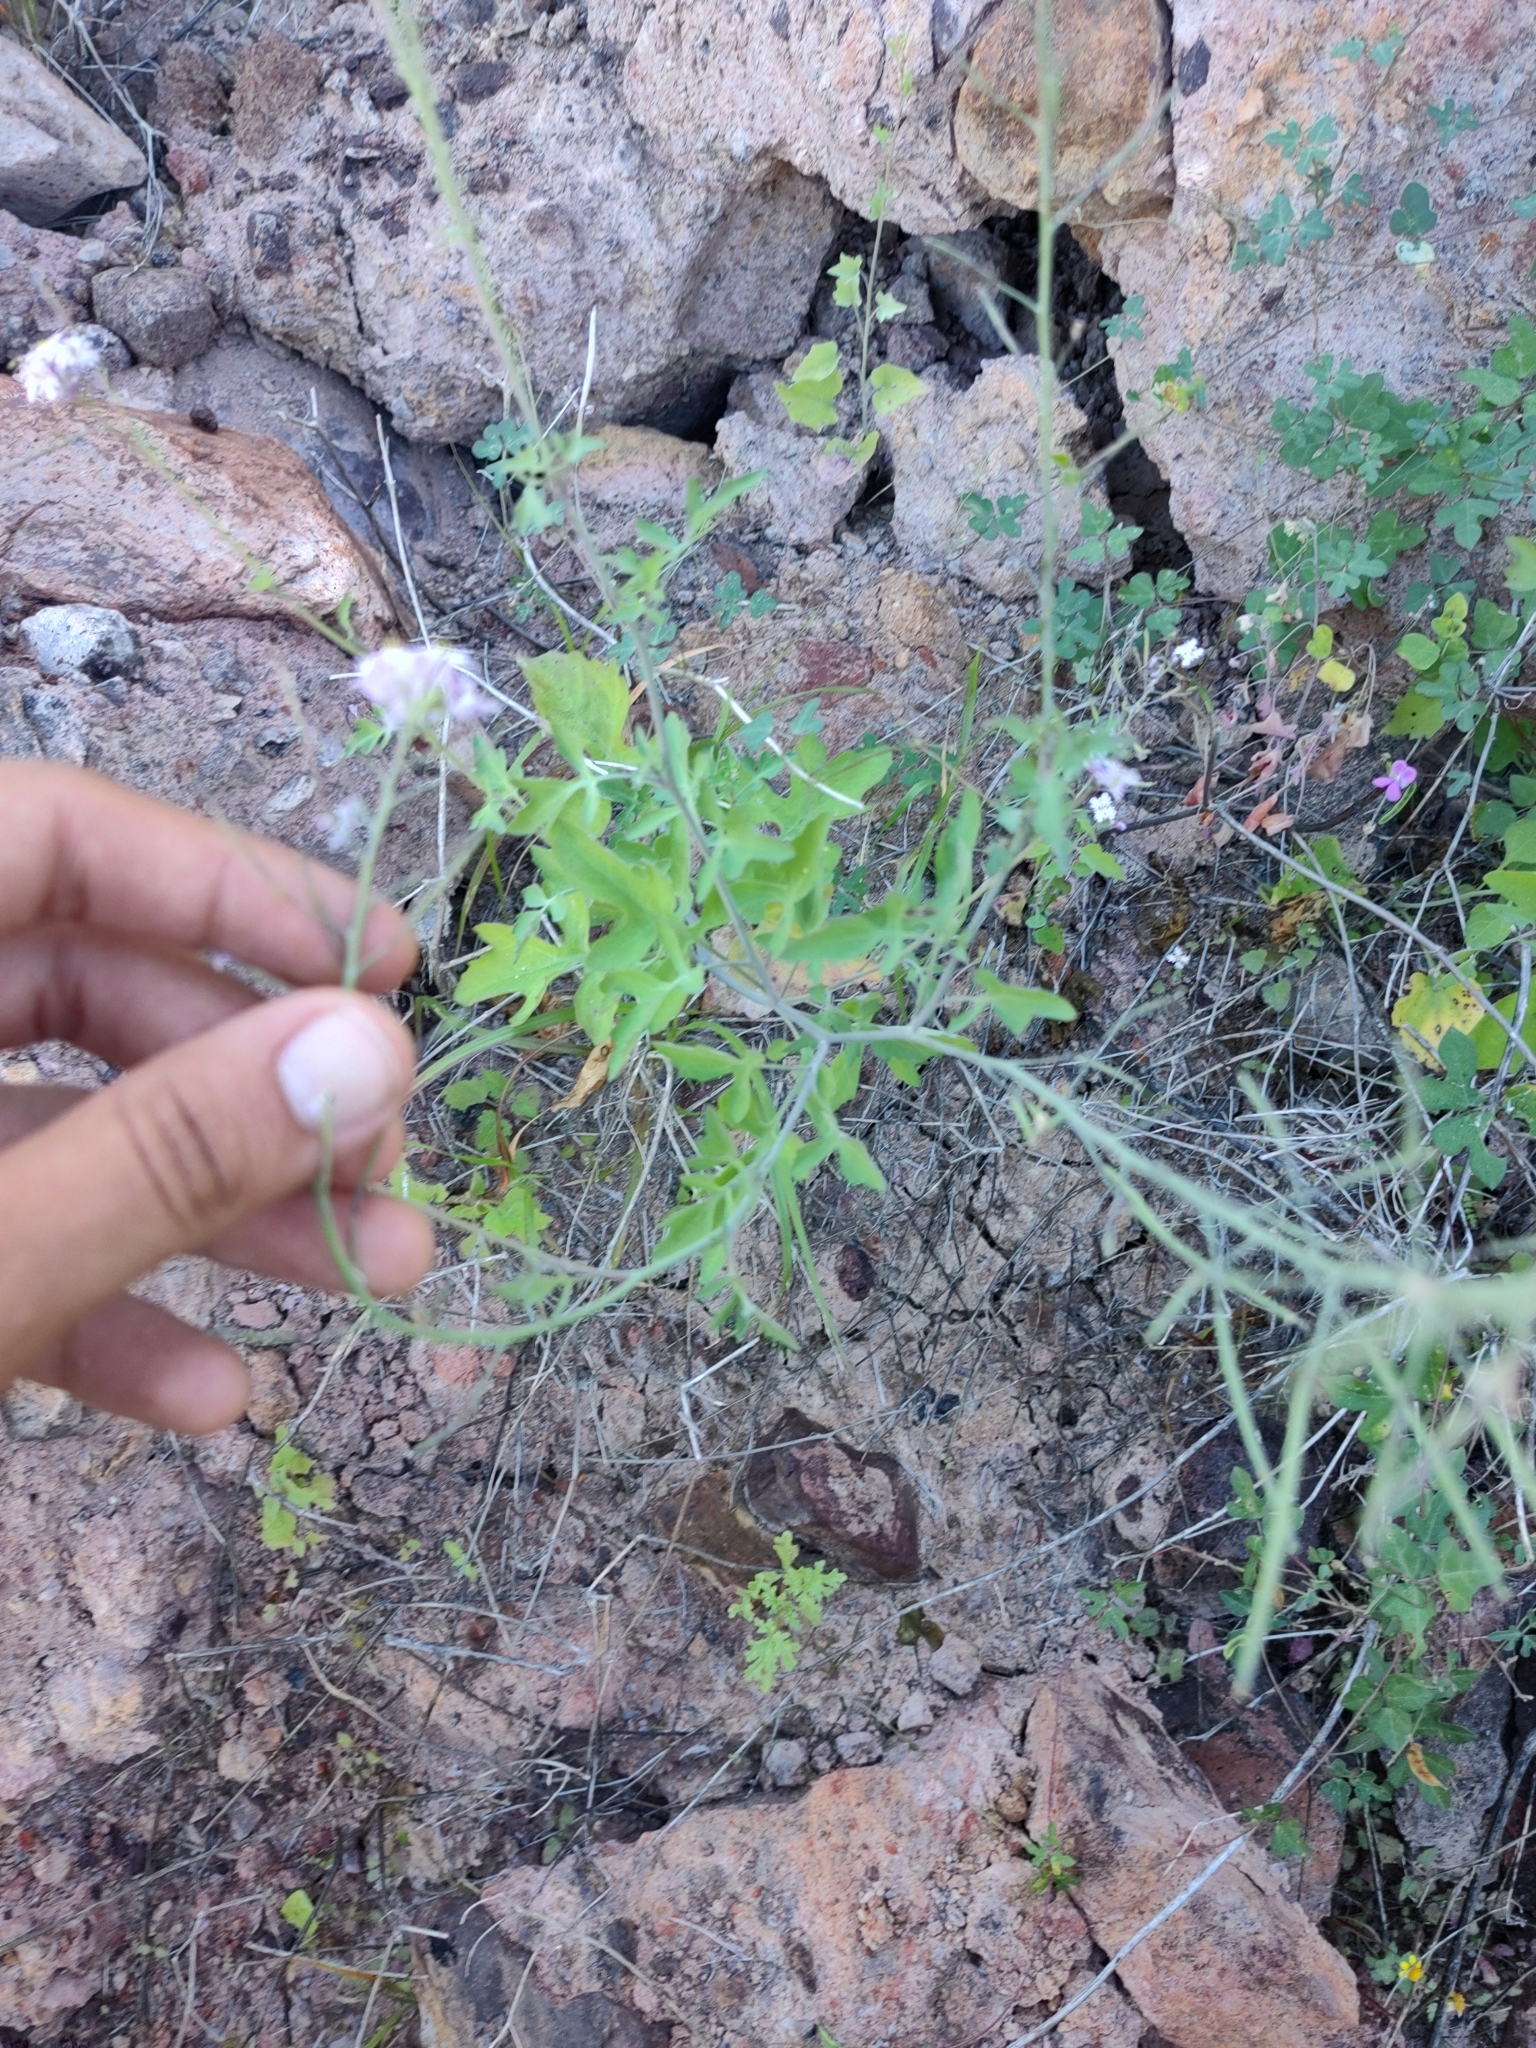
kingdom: Plantae
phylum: Tracheophyta
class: Magnoliopsida
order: Brassicales
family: Brassicaceae
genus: Dryopetalon
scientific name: Dryopetalon palmeri
